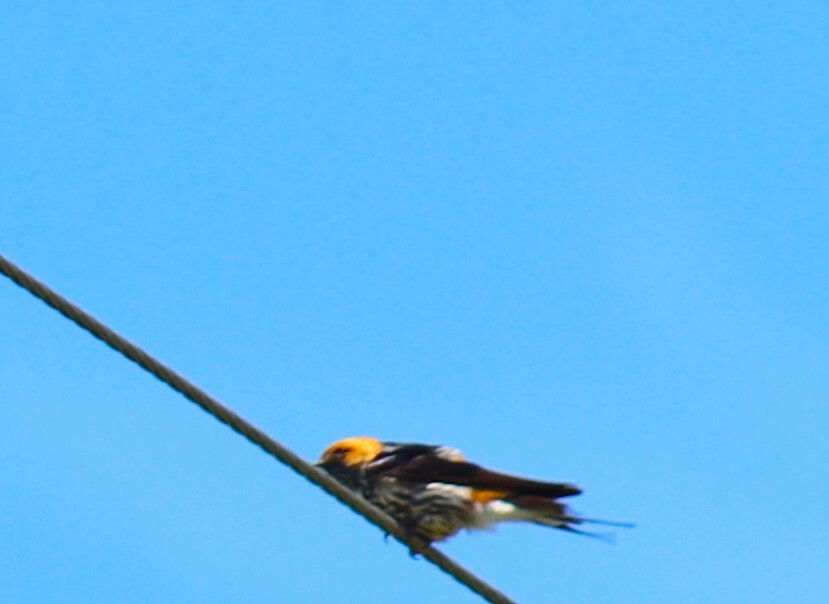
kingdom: Animalia
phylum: Chordata
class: Aves
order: Passeriformes
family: Hirundinidae
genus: Cecropis
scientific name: Cecropis abyssinica
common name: Lesser striped-swallow
